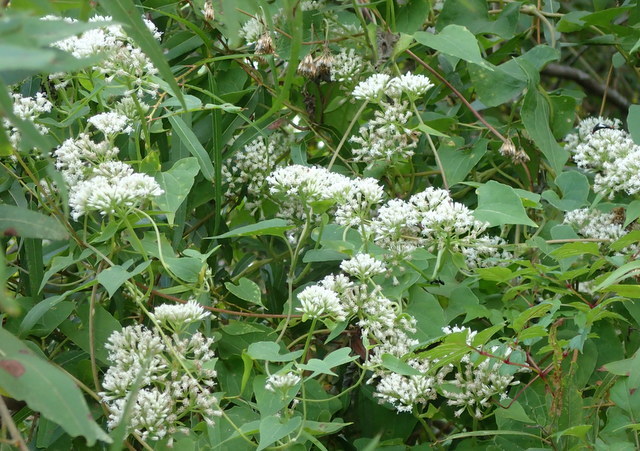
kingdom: Plantae
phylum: Tracheophyta
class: Magnoliopsida
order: Asterales
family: Asteraceae
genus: Mikania
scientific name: Mikania scandens
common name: Climbing hempvine
